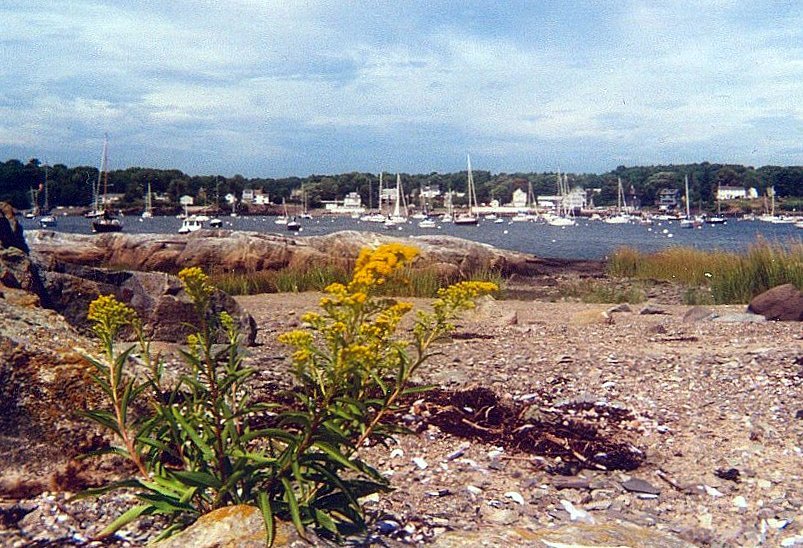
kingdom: Plantae
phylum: Tracheophyta
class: Magnoliopsida
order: Asterales
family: Asteraceae
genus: Solidago
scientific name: Solidago sempervirens
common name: Salt-marsh goldenrod
